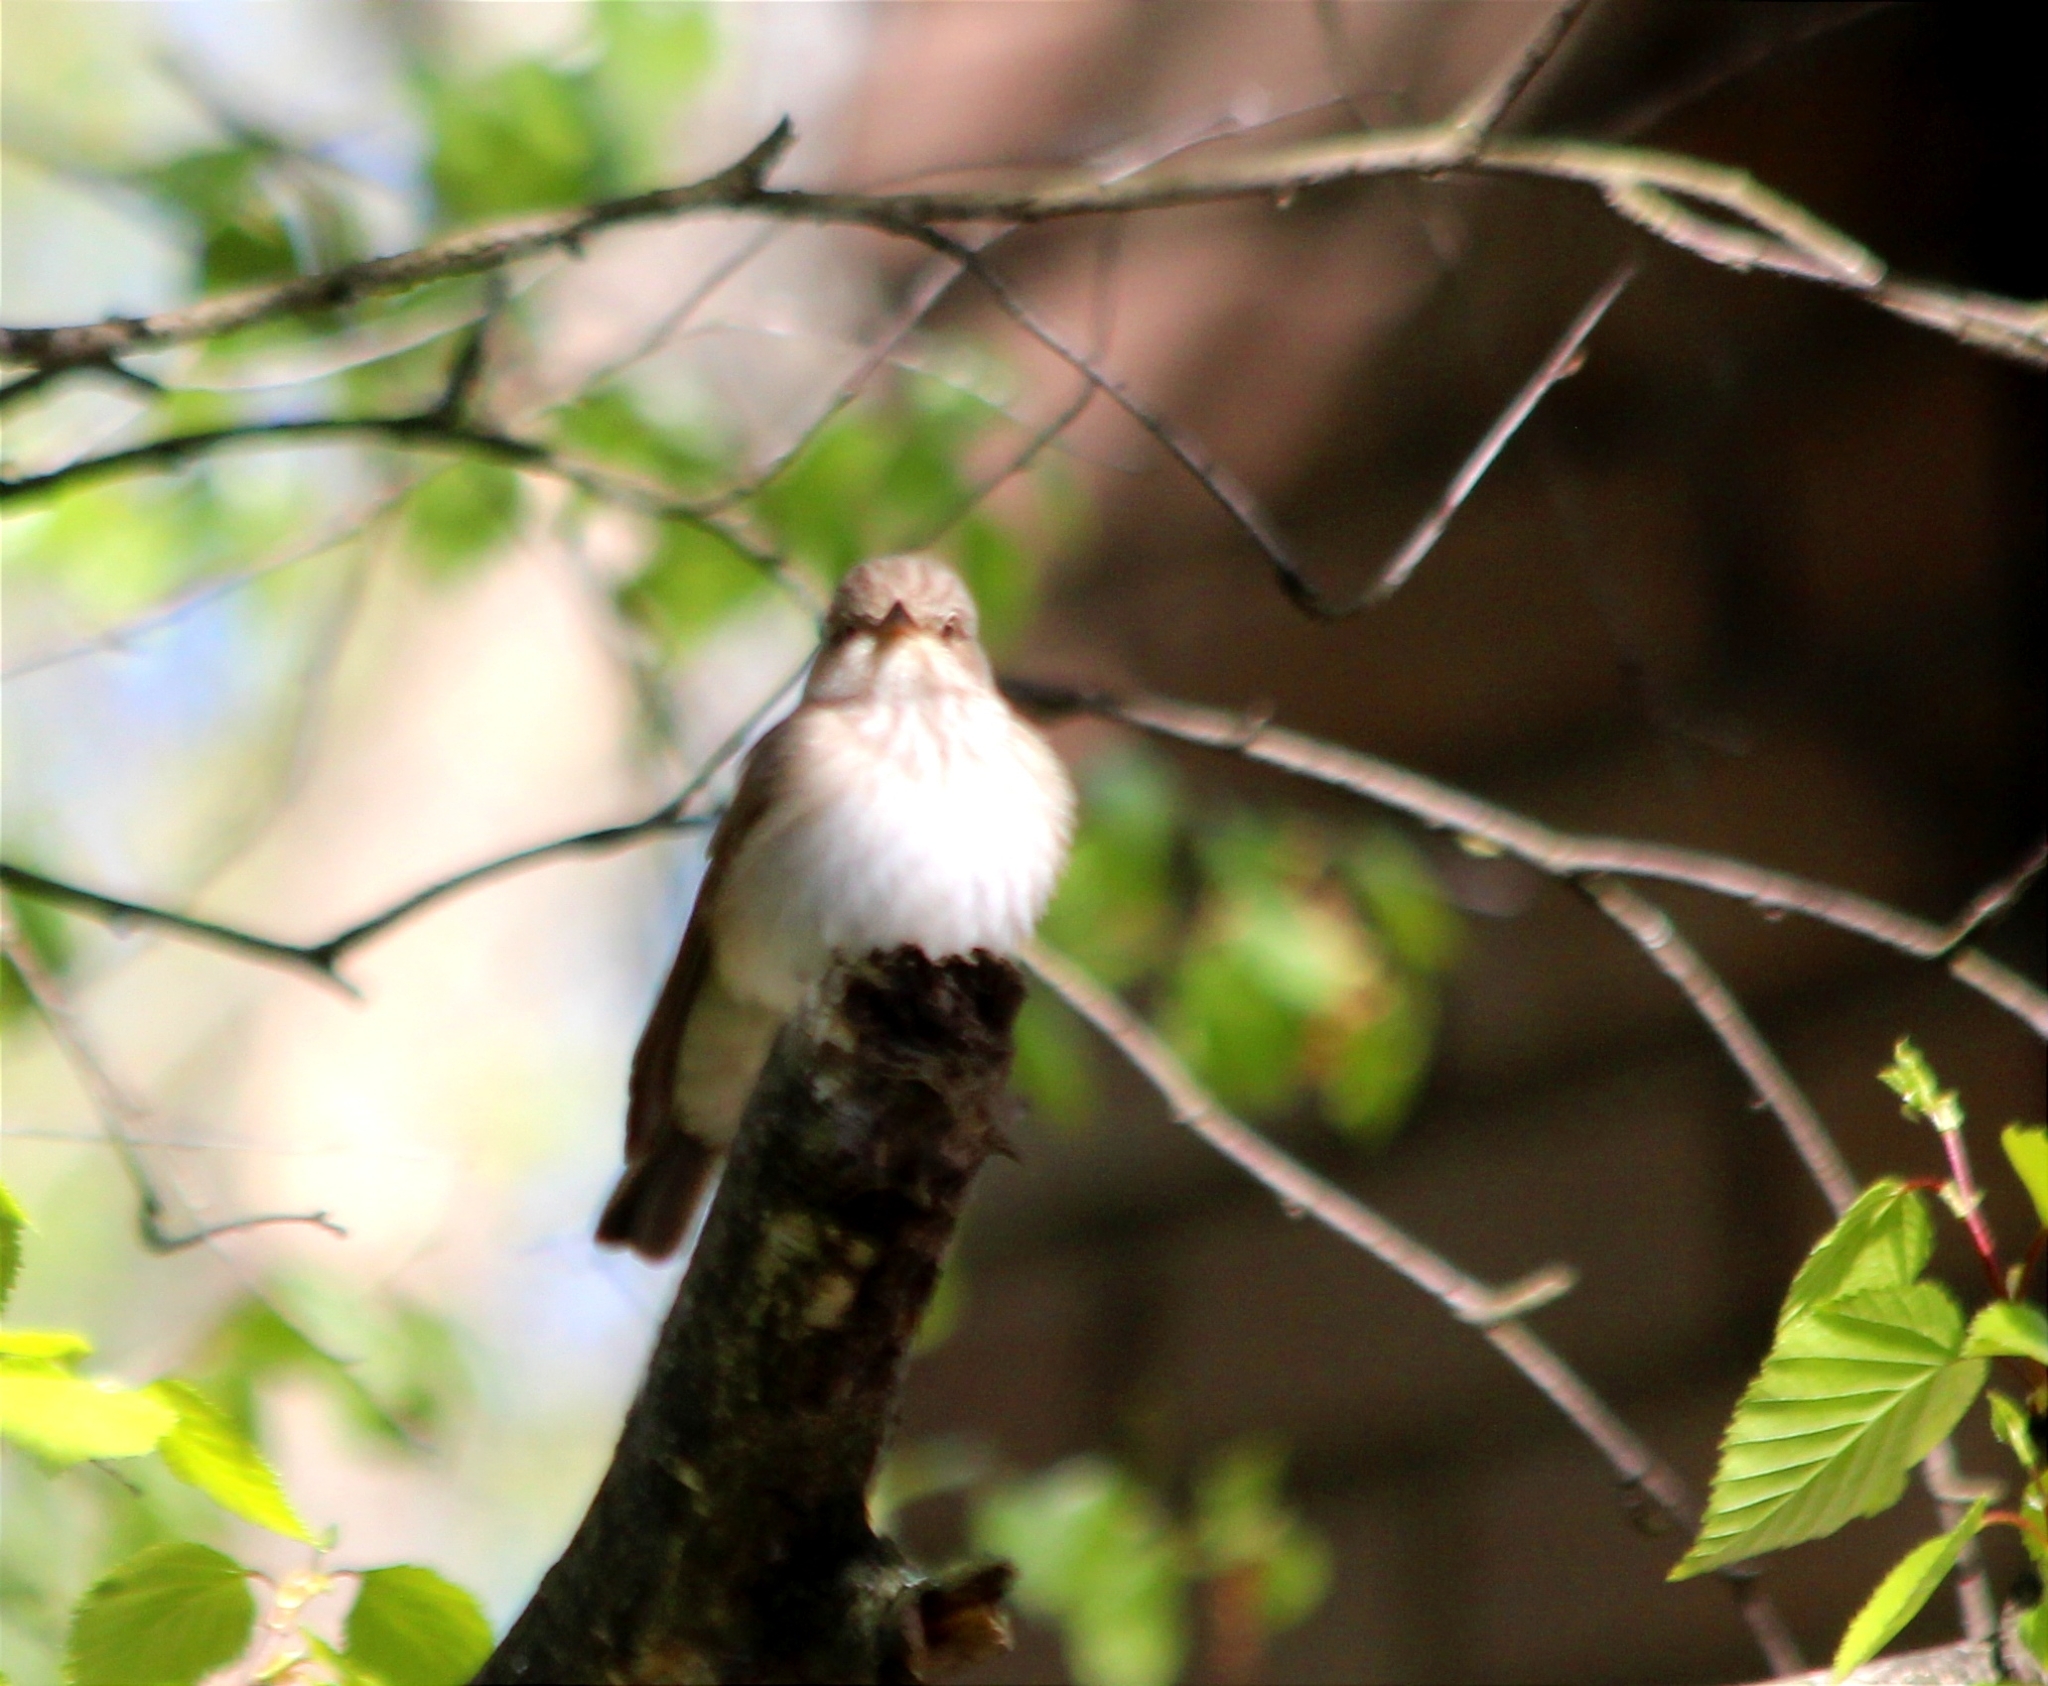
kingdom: Animalia
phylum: Chordata
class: Aves
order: Passeriformes
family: Muscicapidae
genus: Muscicapa
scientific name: Muscicapa striata
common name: Spotted flycatcher
